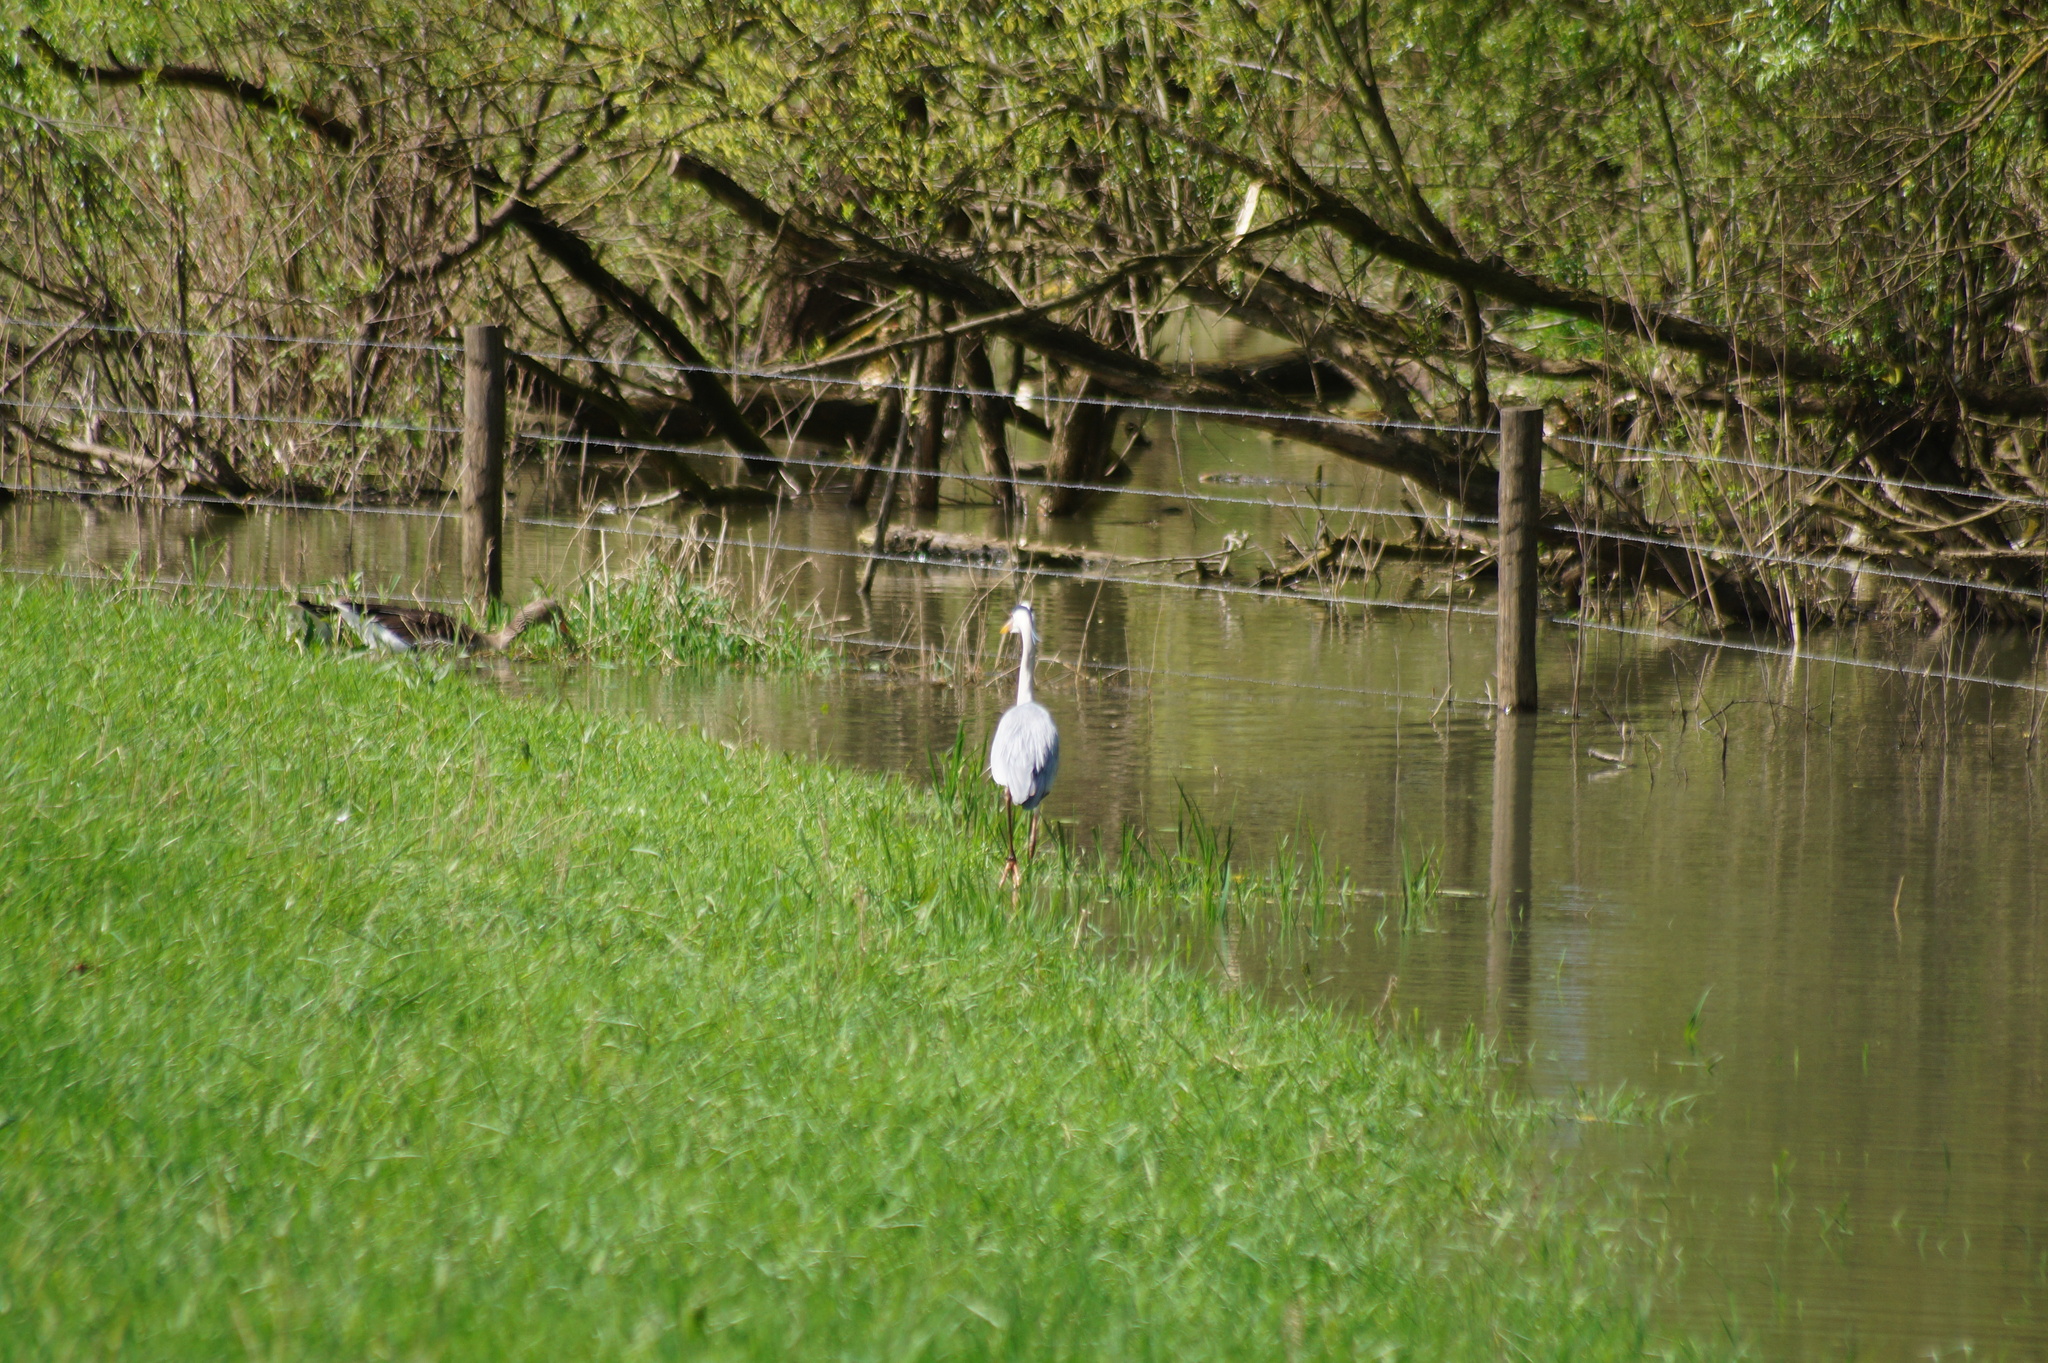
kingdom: Animalia
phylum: Chordata
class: Aves
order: Pelecaniformes
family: Ardeidae
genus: Ardea
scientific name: Ardea cinerea
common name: Grey heron
